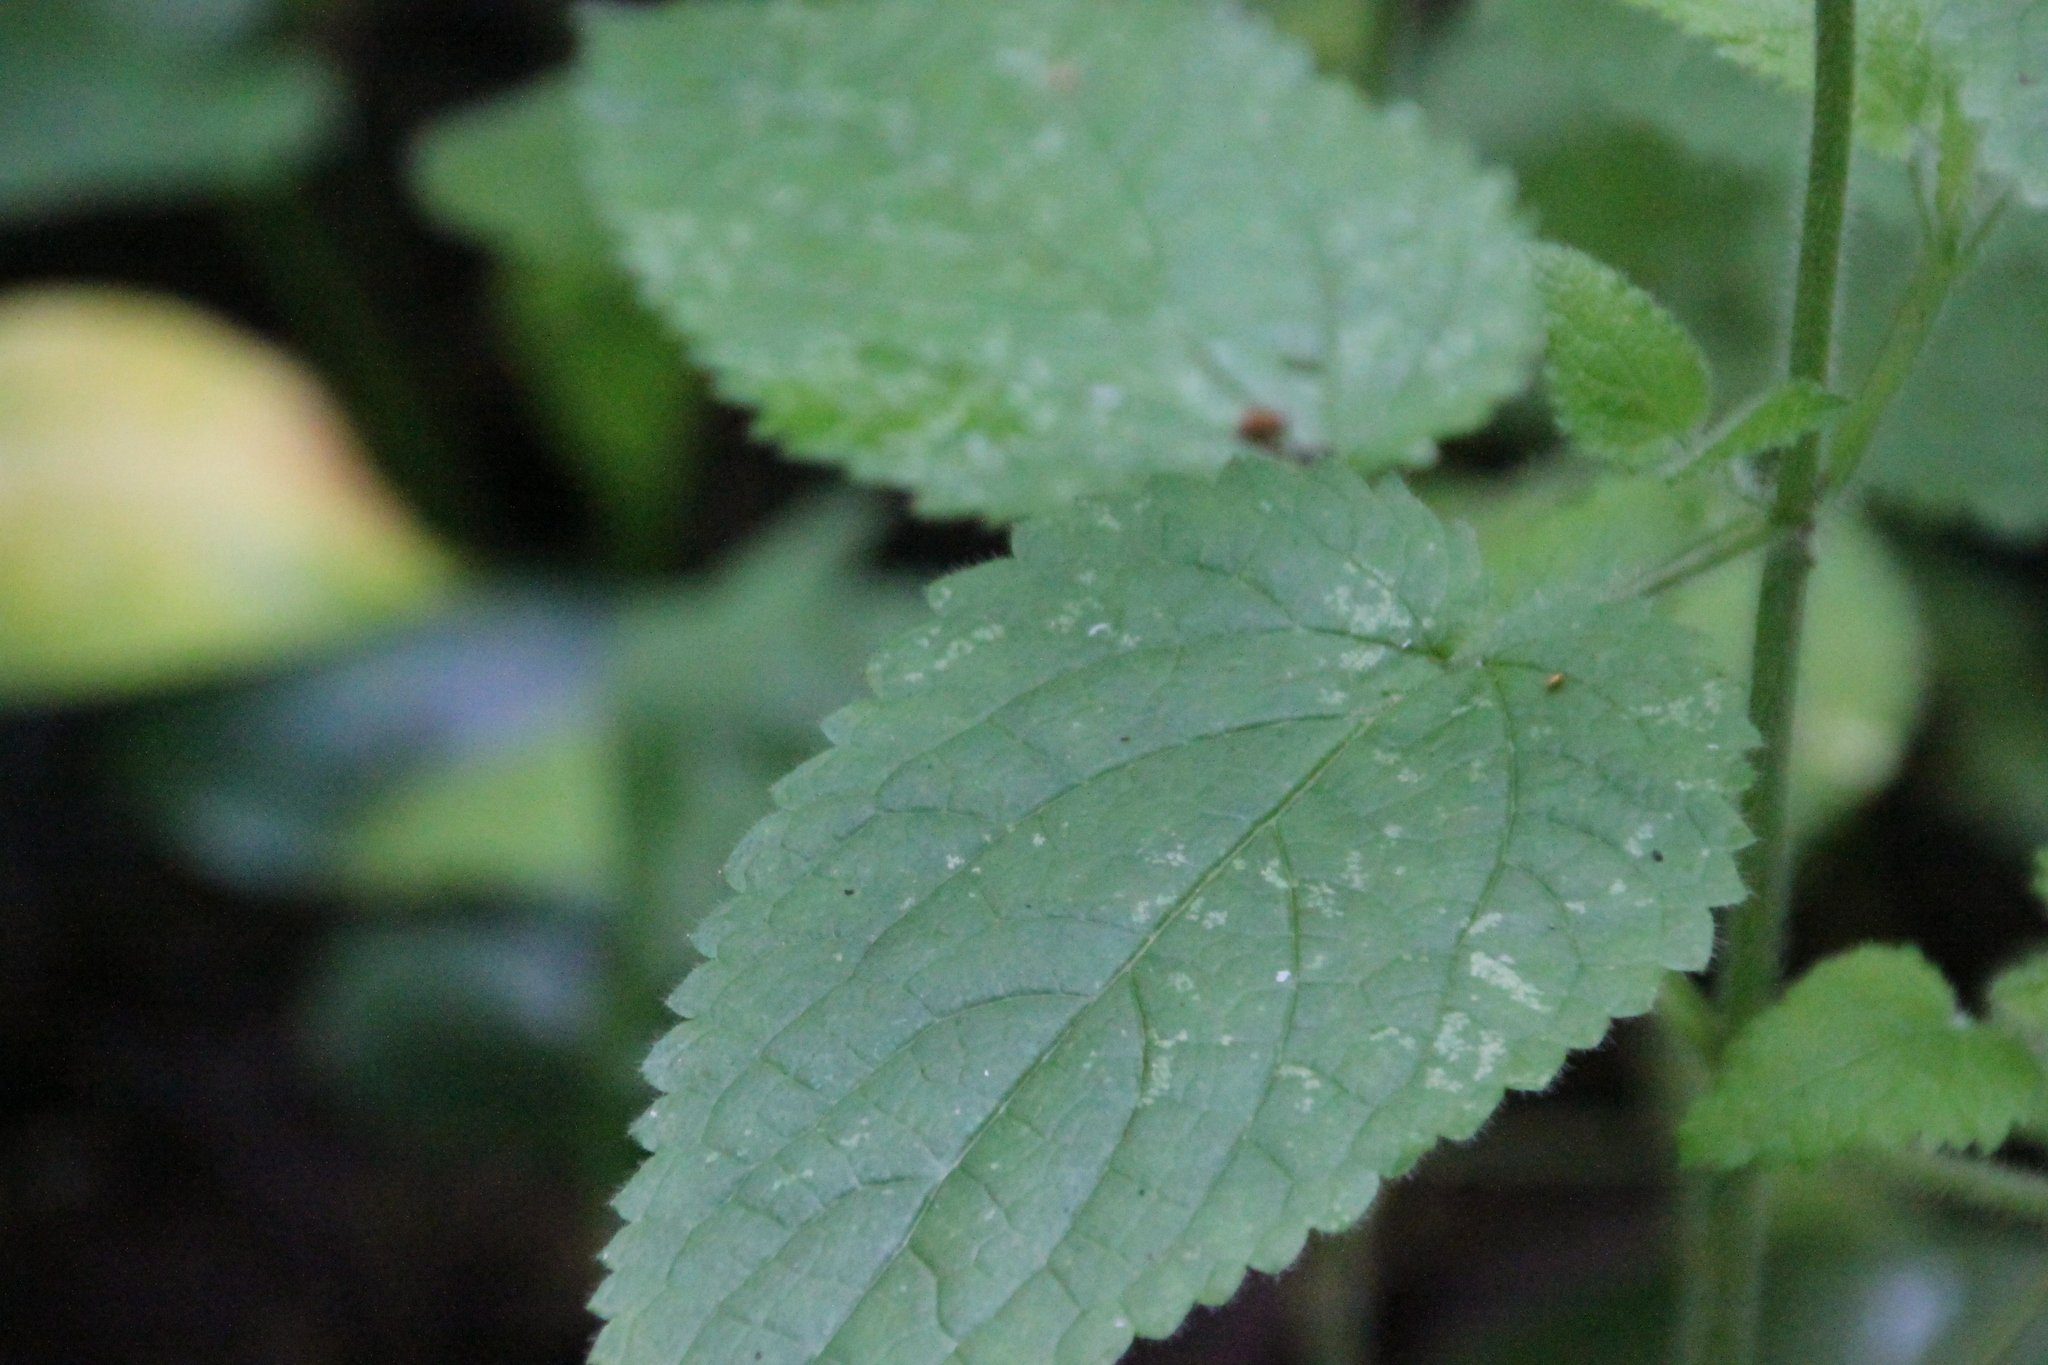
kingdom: Plantae
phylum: Tracheophyta
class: Magnoliopsida
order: Lamiales
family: Lamiaceae
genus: Stachys
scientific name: Stachys sylvatica
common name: Hedge woundwort
